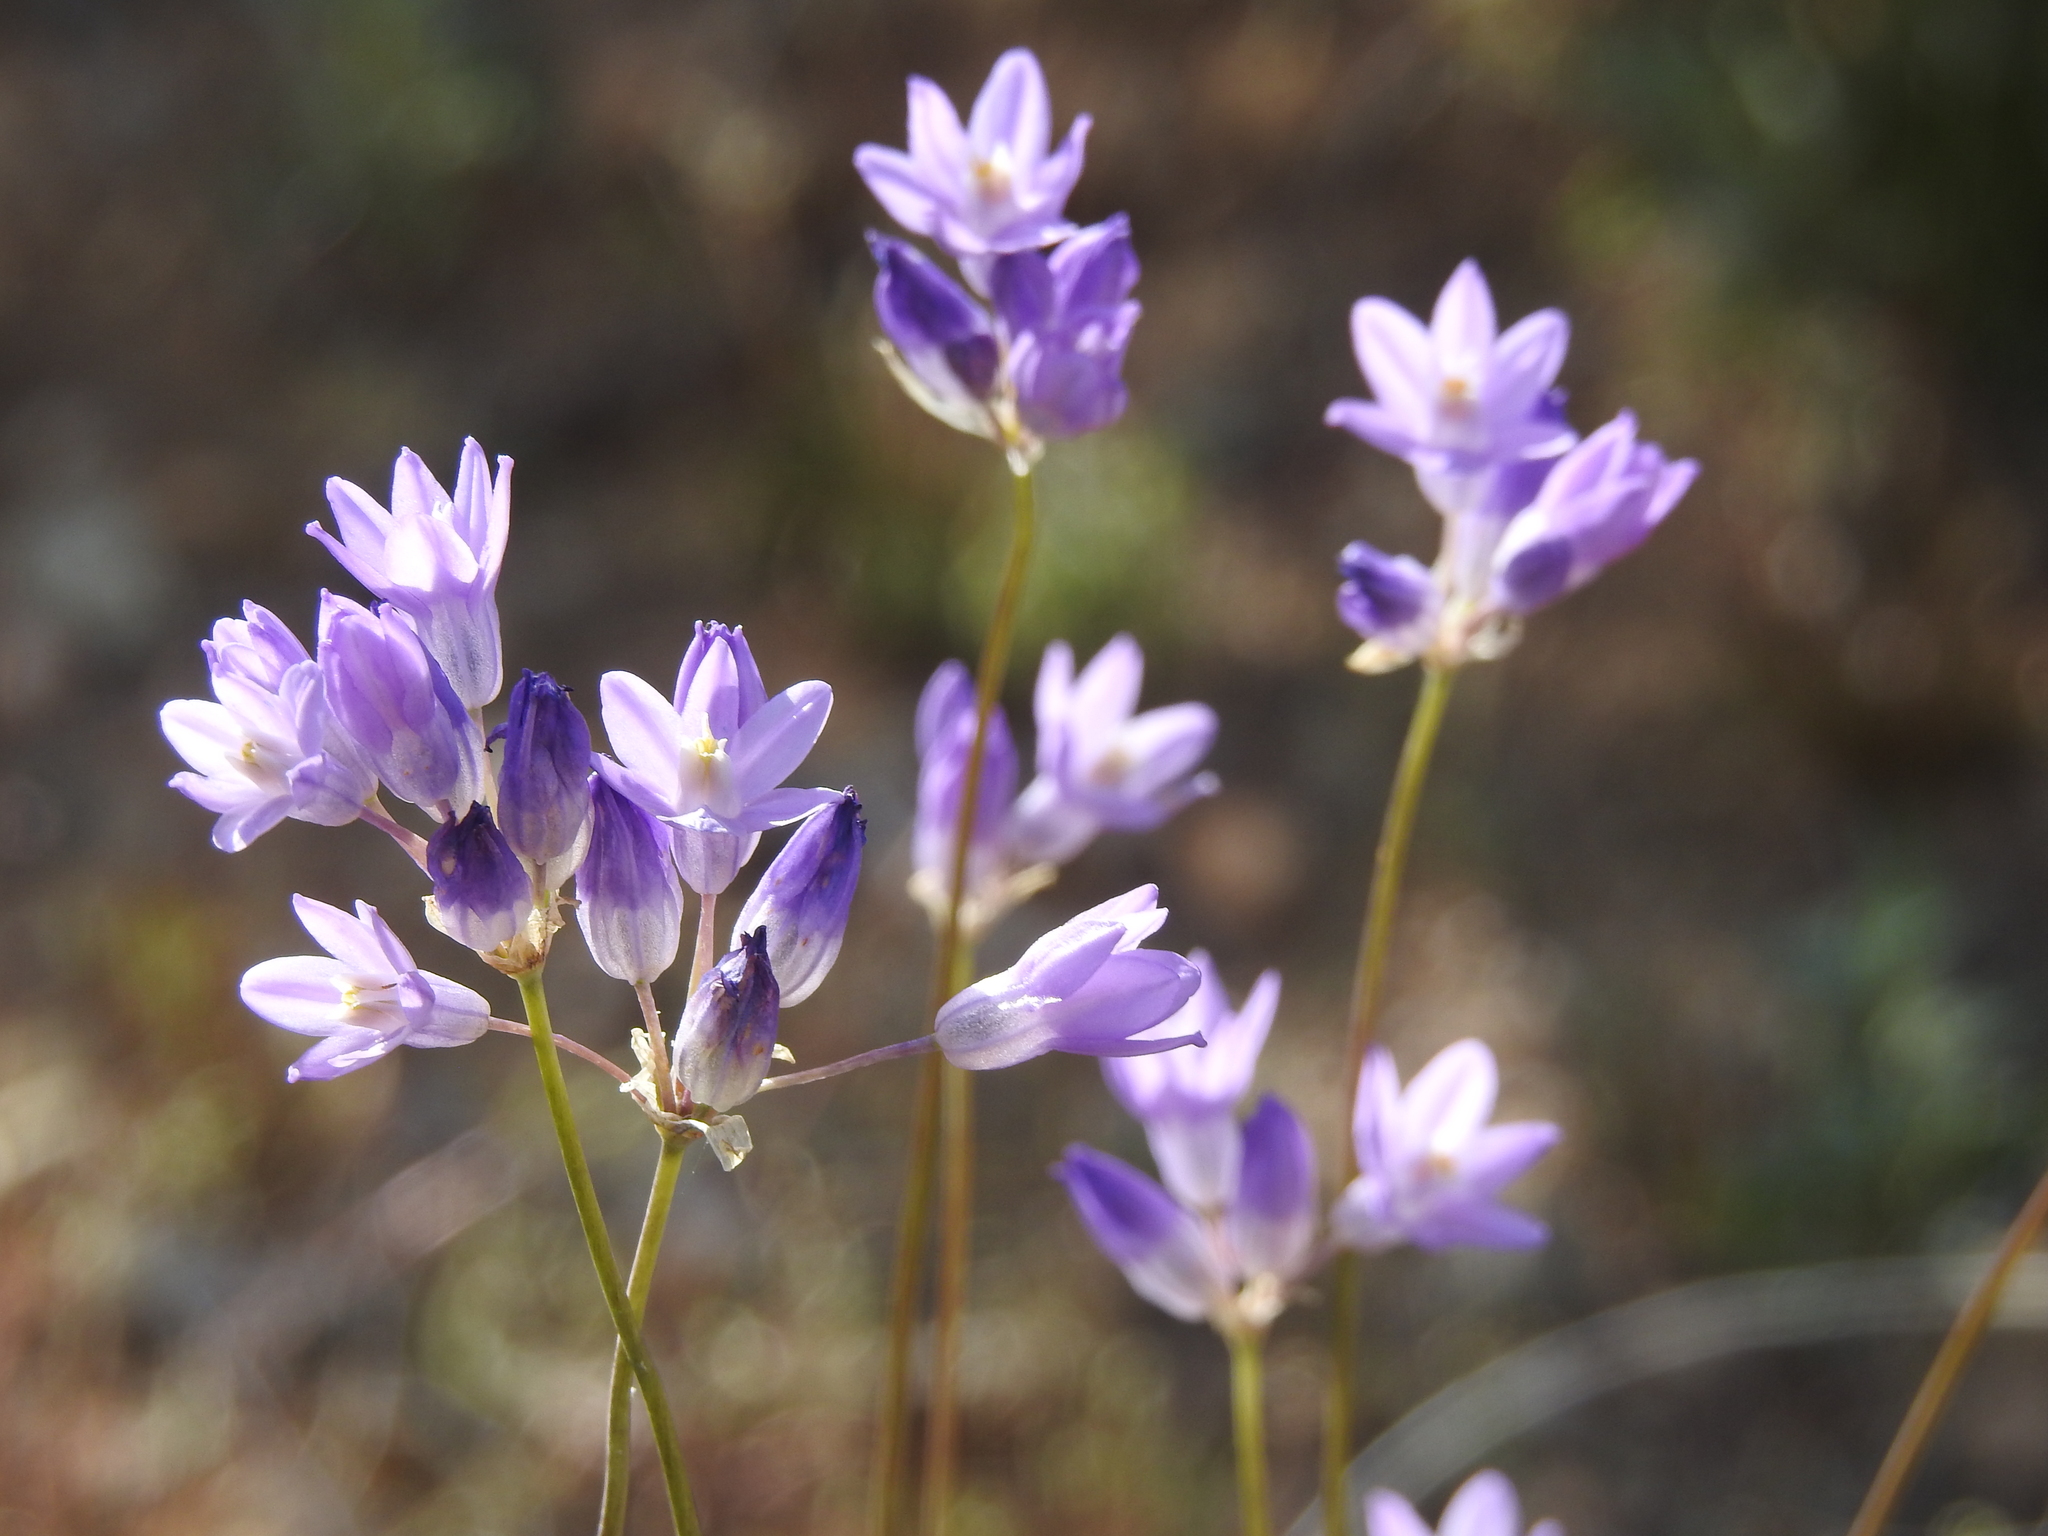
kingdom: Plantae
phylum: Tracheophyta
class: Liliopsida
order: Asparagales
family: Asparagaceae
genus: Dipterostemon
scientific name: Dipterostemon capitatus
